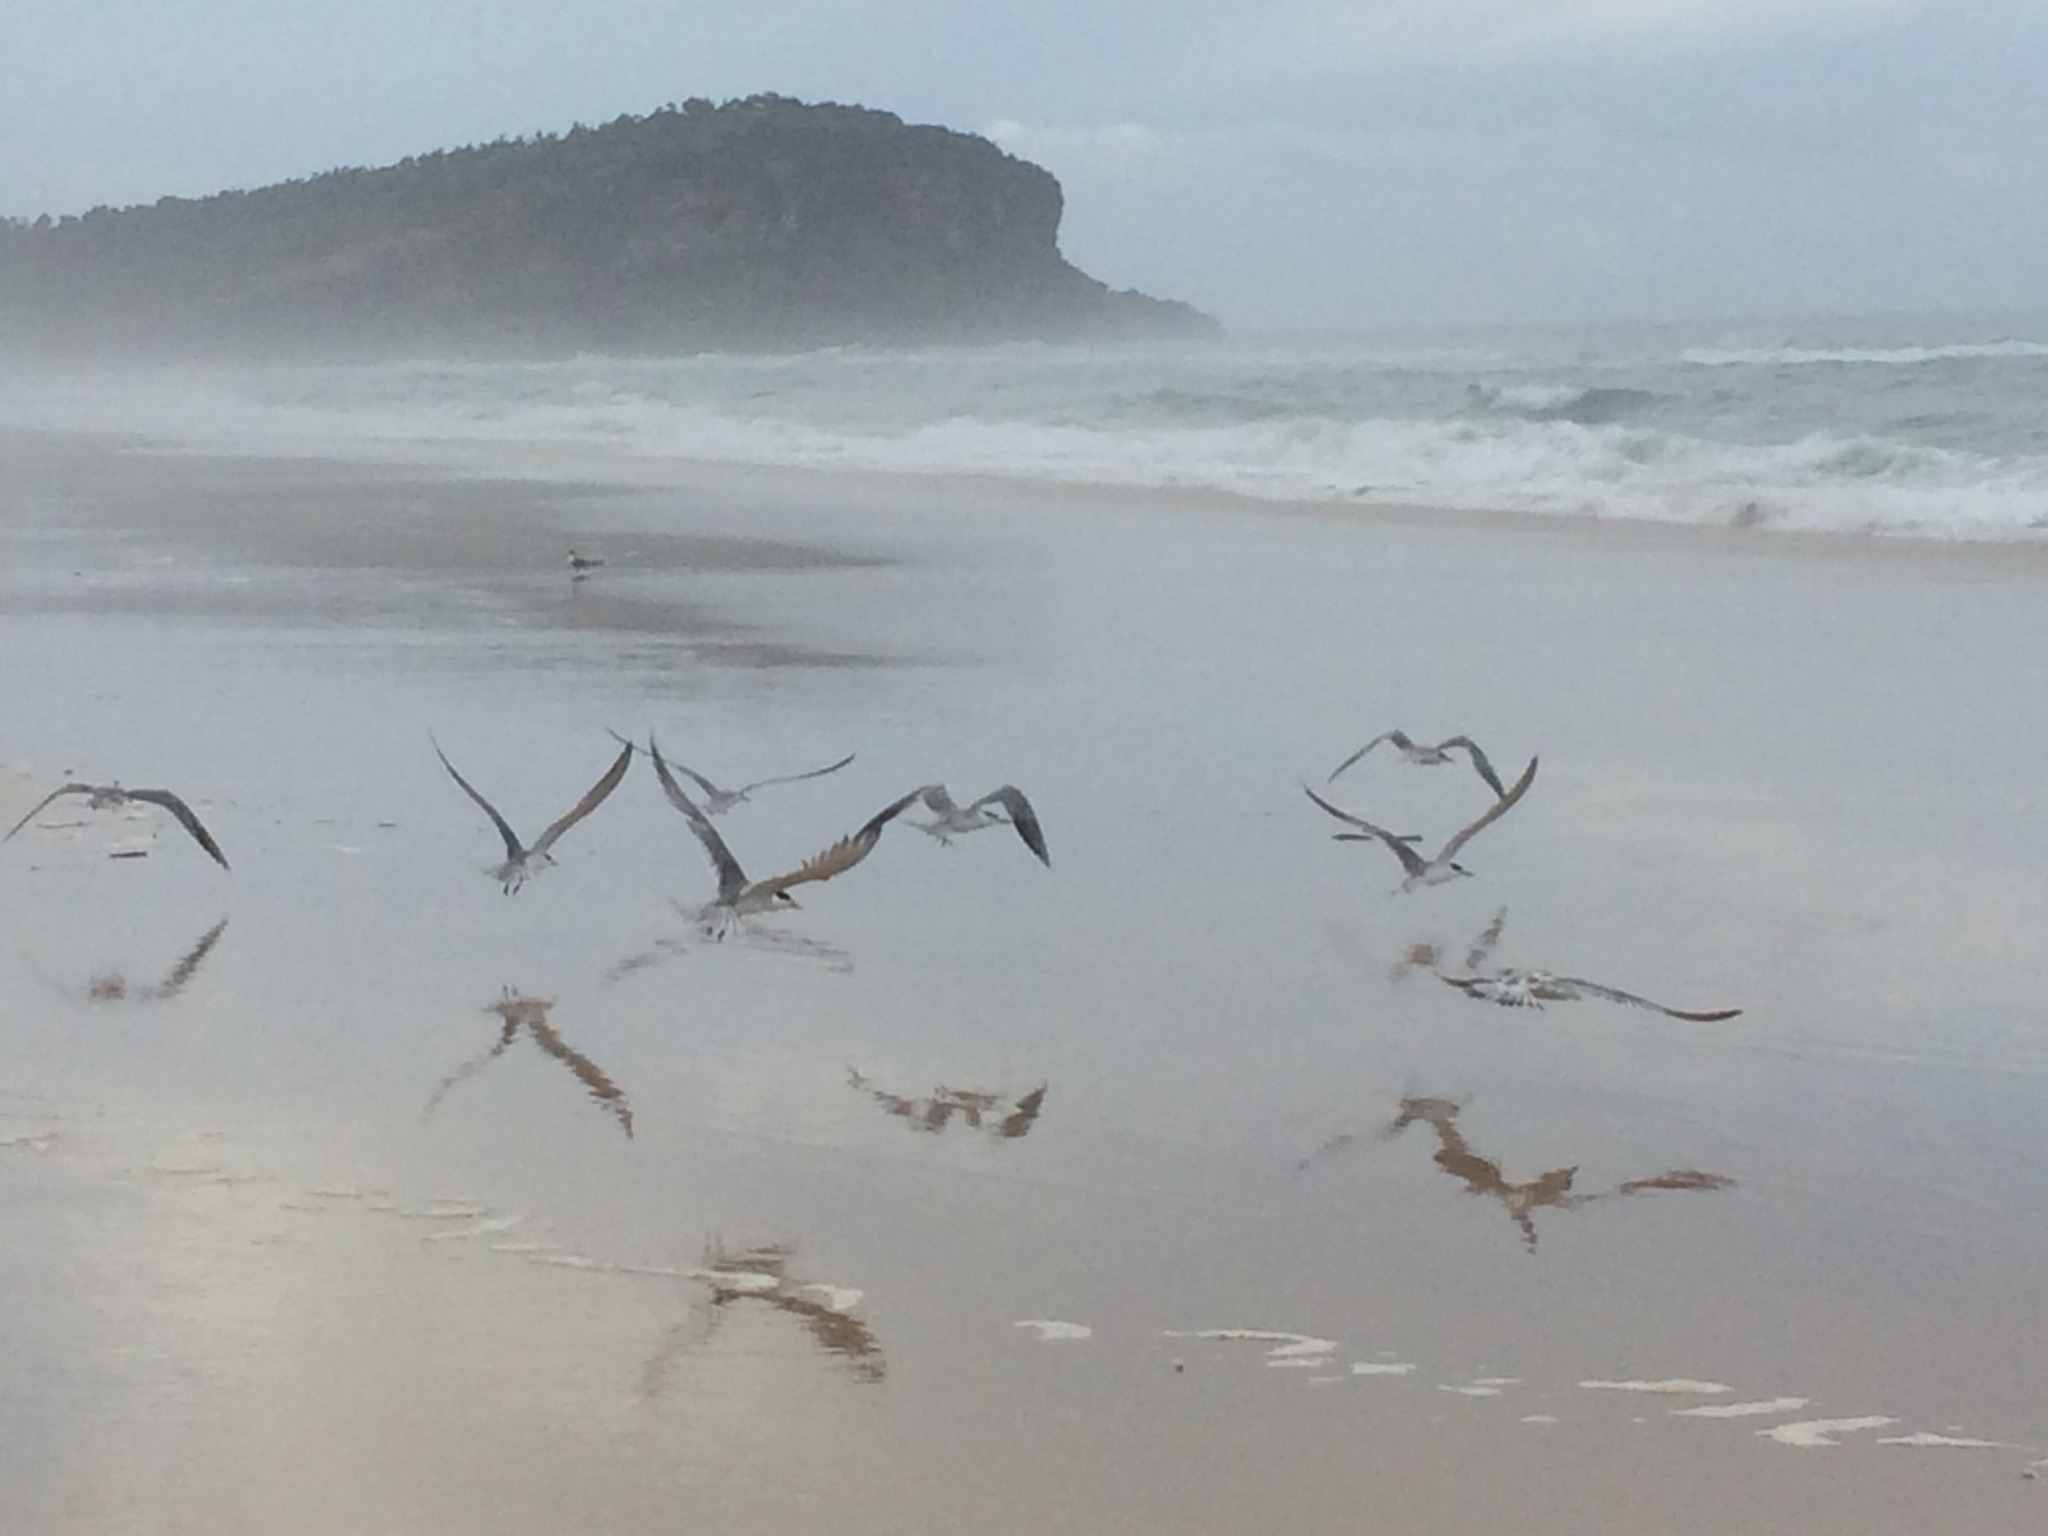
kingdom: Animalia
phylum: Chordata
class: Aves
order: Charadriiformes
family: Laridae
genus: Thalasseus
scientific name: Thalasseus bergii
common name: Greater crested tern
